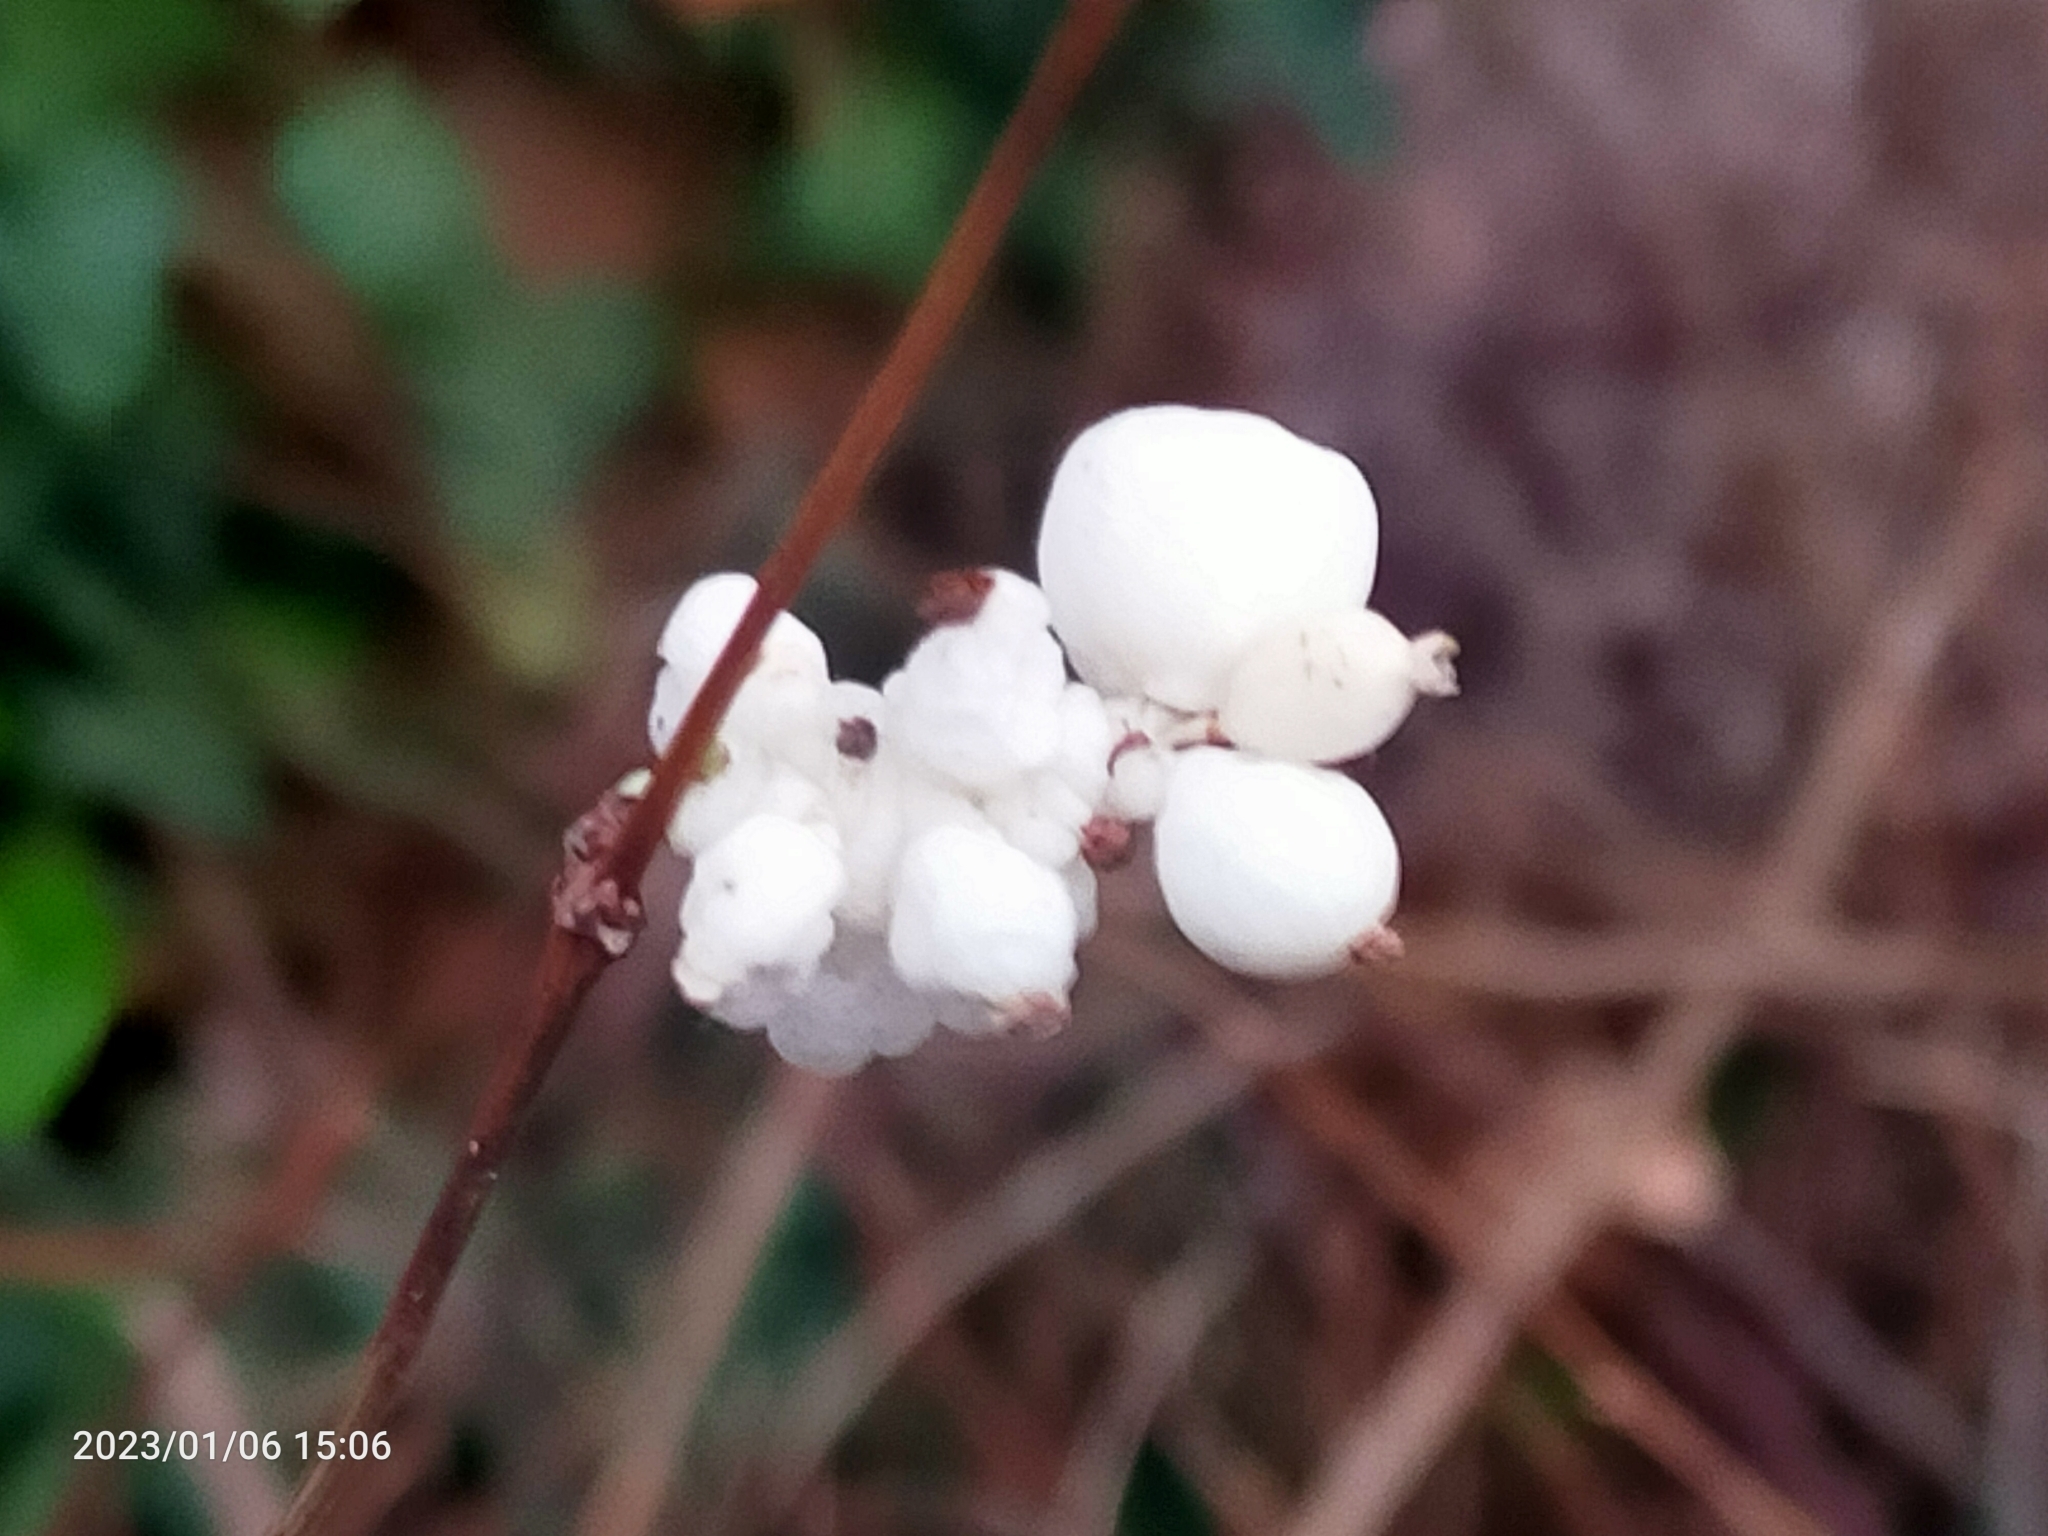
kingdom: Plantae
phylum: Tracheophyta
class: Magnoliopsida
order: Dipsacales
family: Caprifoliaceae
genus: Symphoricarpos
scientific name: Symphoricarpos albus
